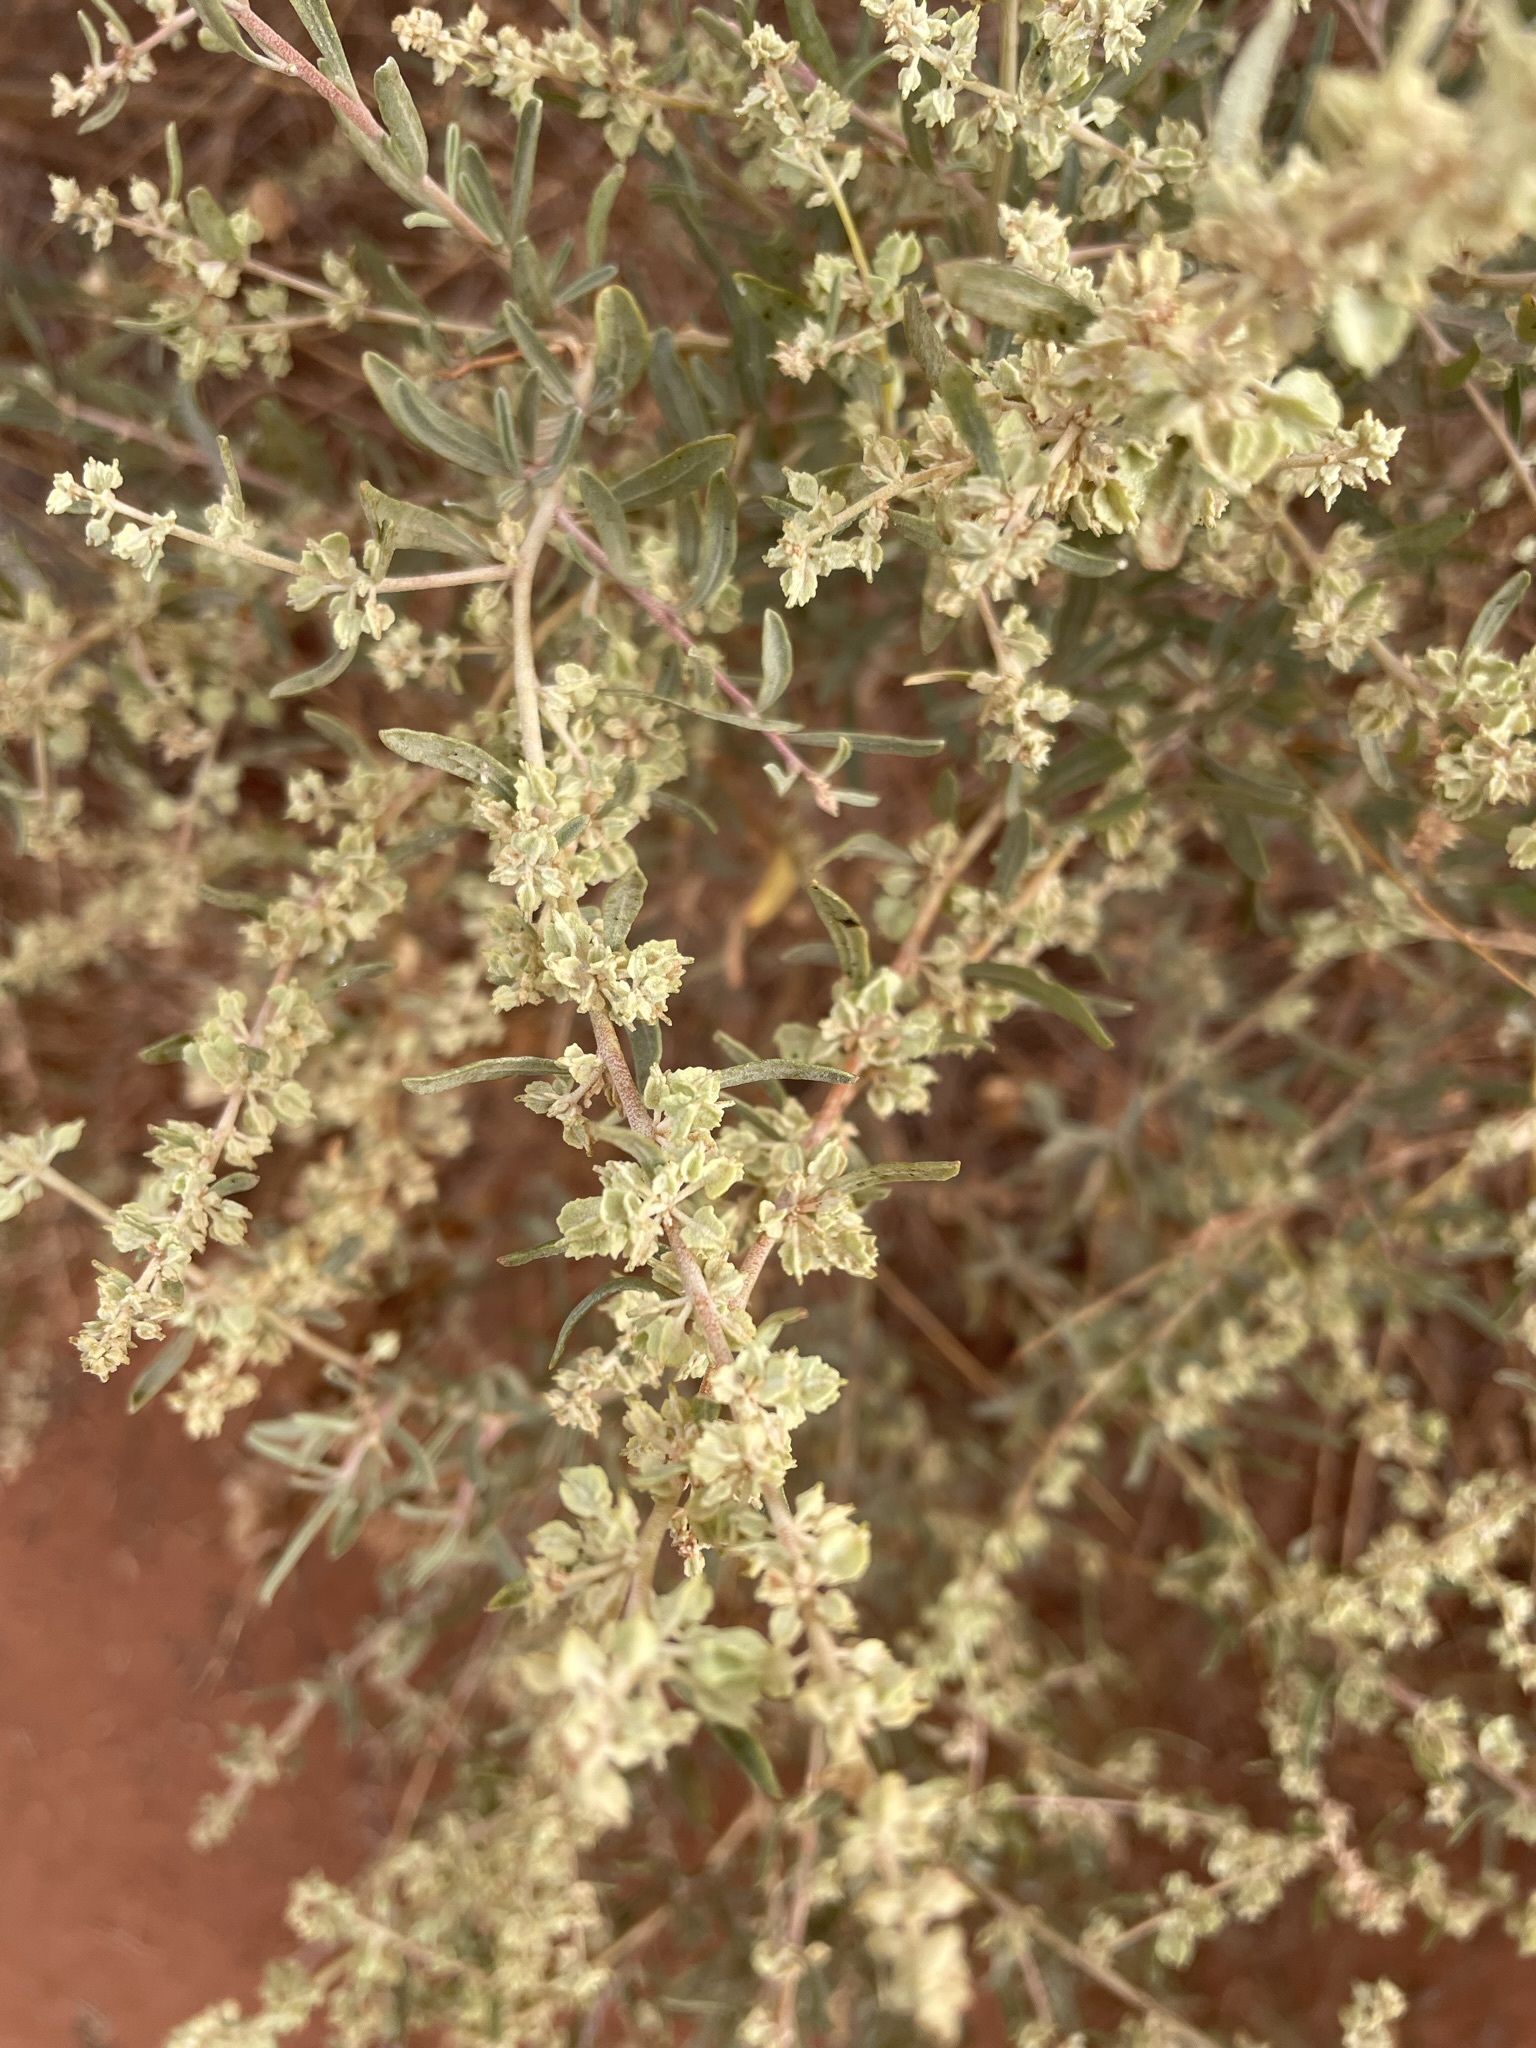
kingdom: Plantae
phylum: Tracheophyta
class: Magnoliopsida
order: Caryophyllales
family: Amaranthaceae
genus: Atriplex
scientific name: Atriplex canescens
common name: Four-wing saltbush
